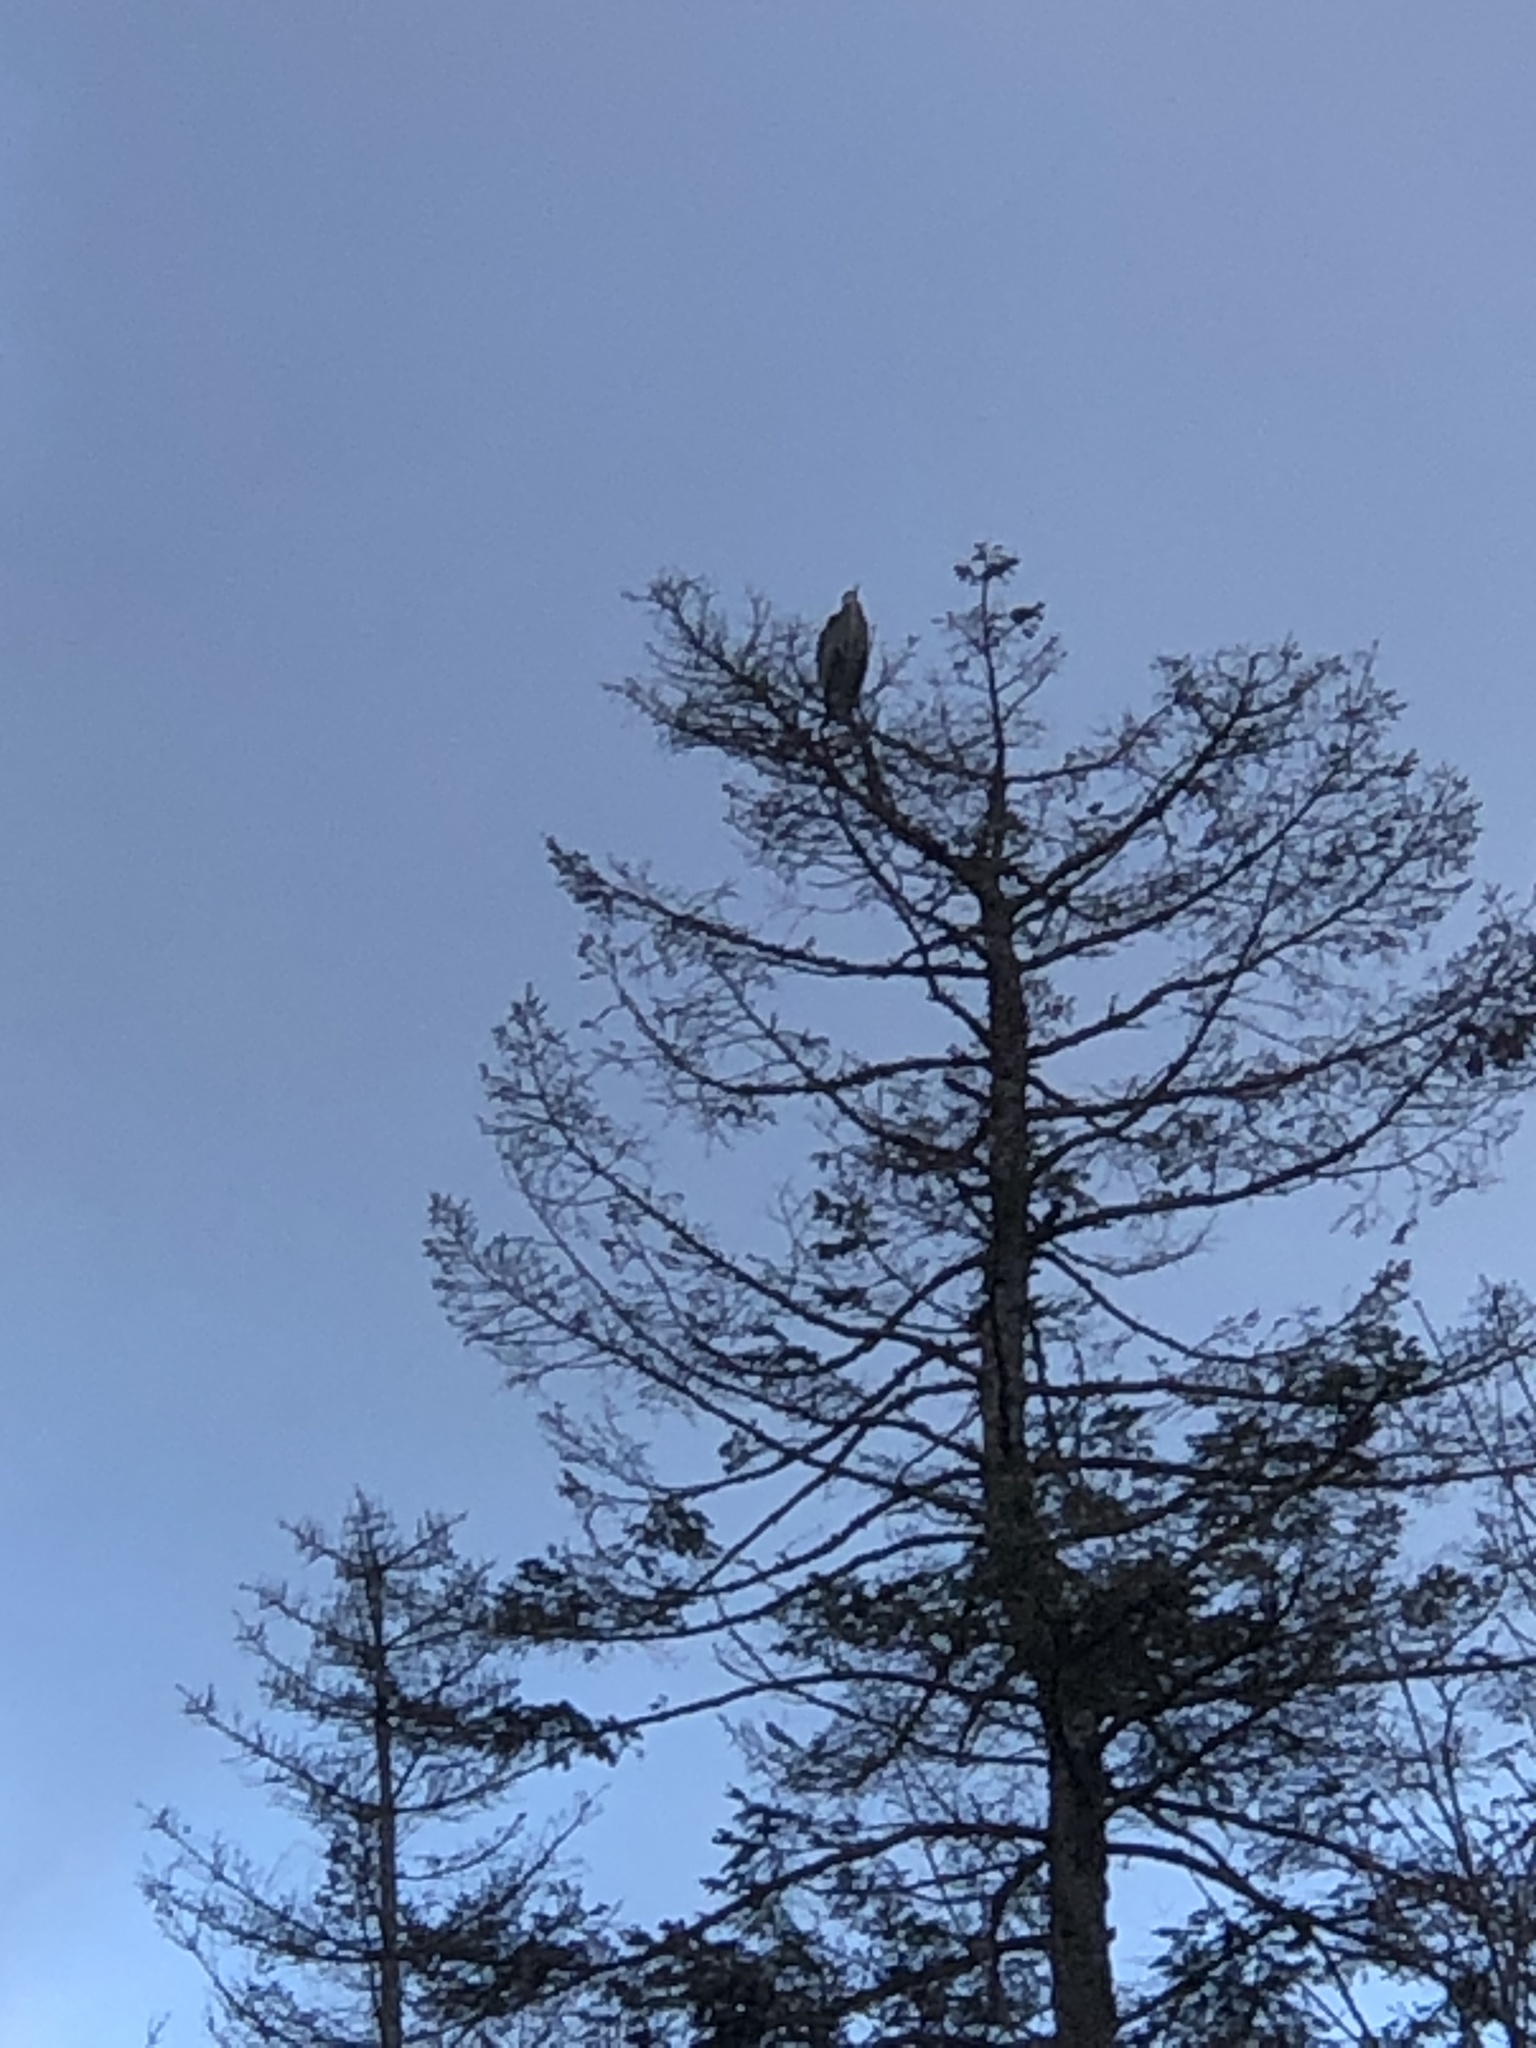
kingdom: Animalia
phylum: Chordata
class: Aves
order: Pelecaniformes
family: Ardeidae
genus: Ardea
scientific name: Ardea herodias
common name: Great blue heron
